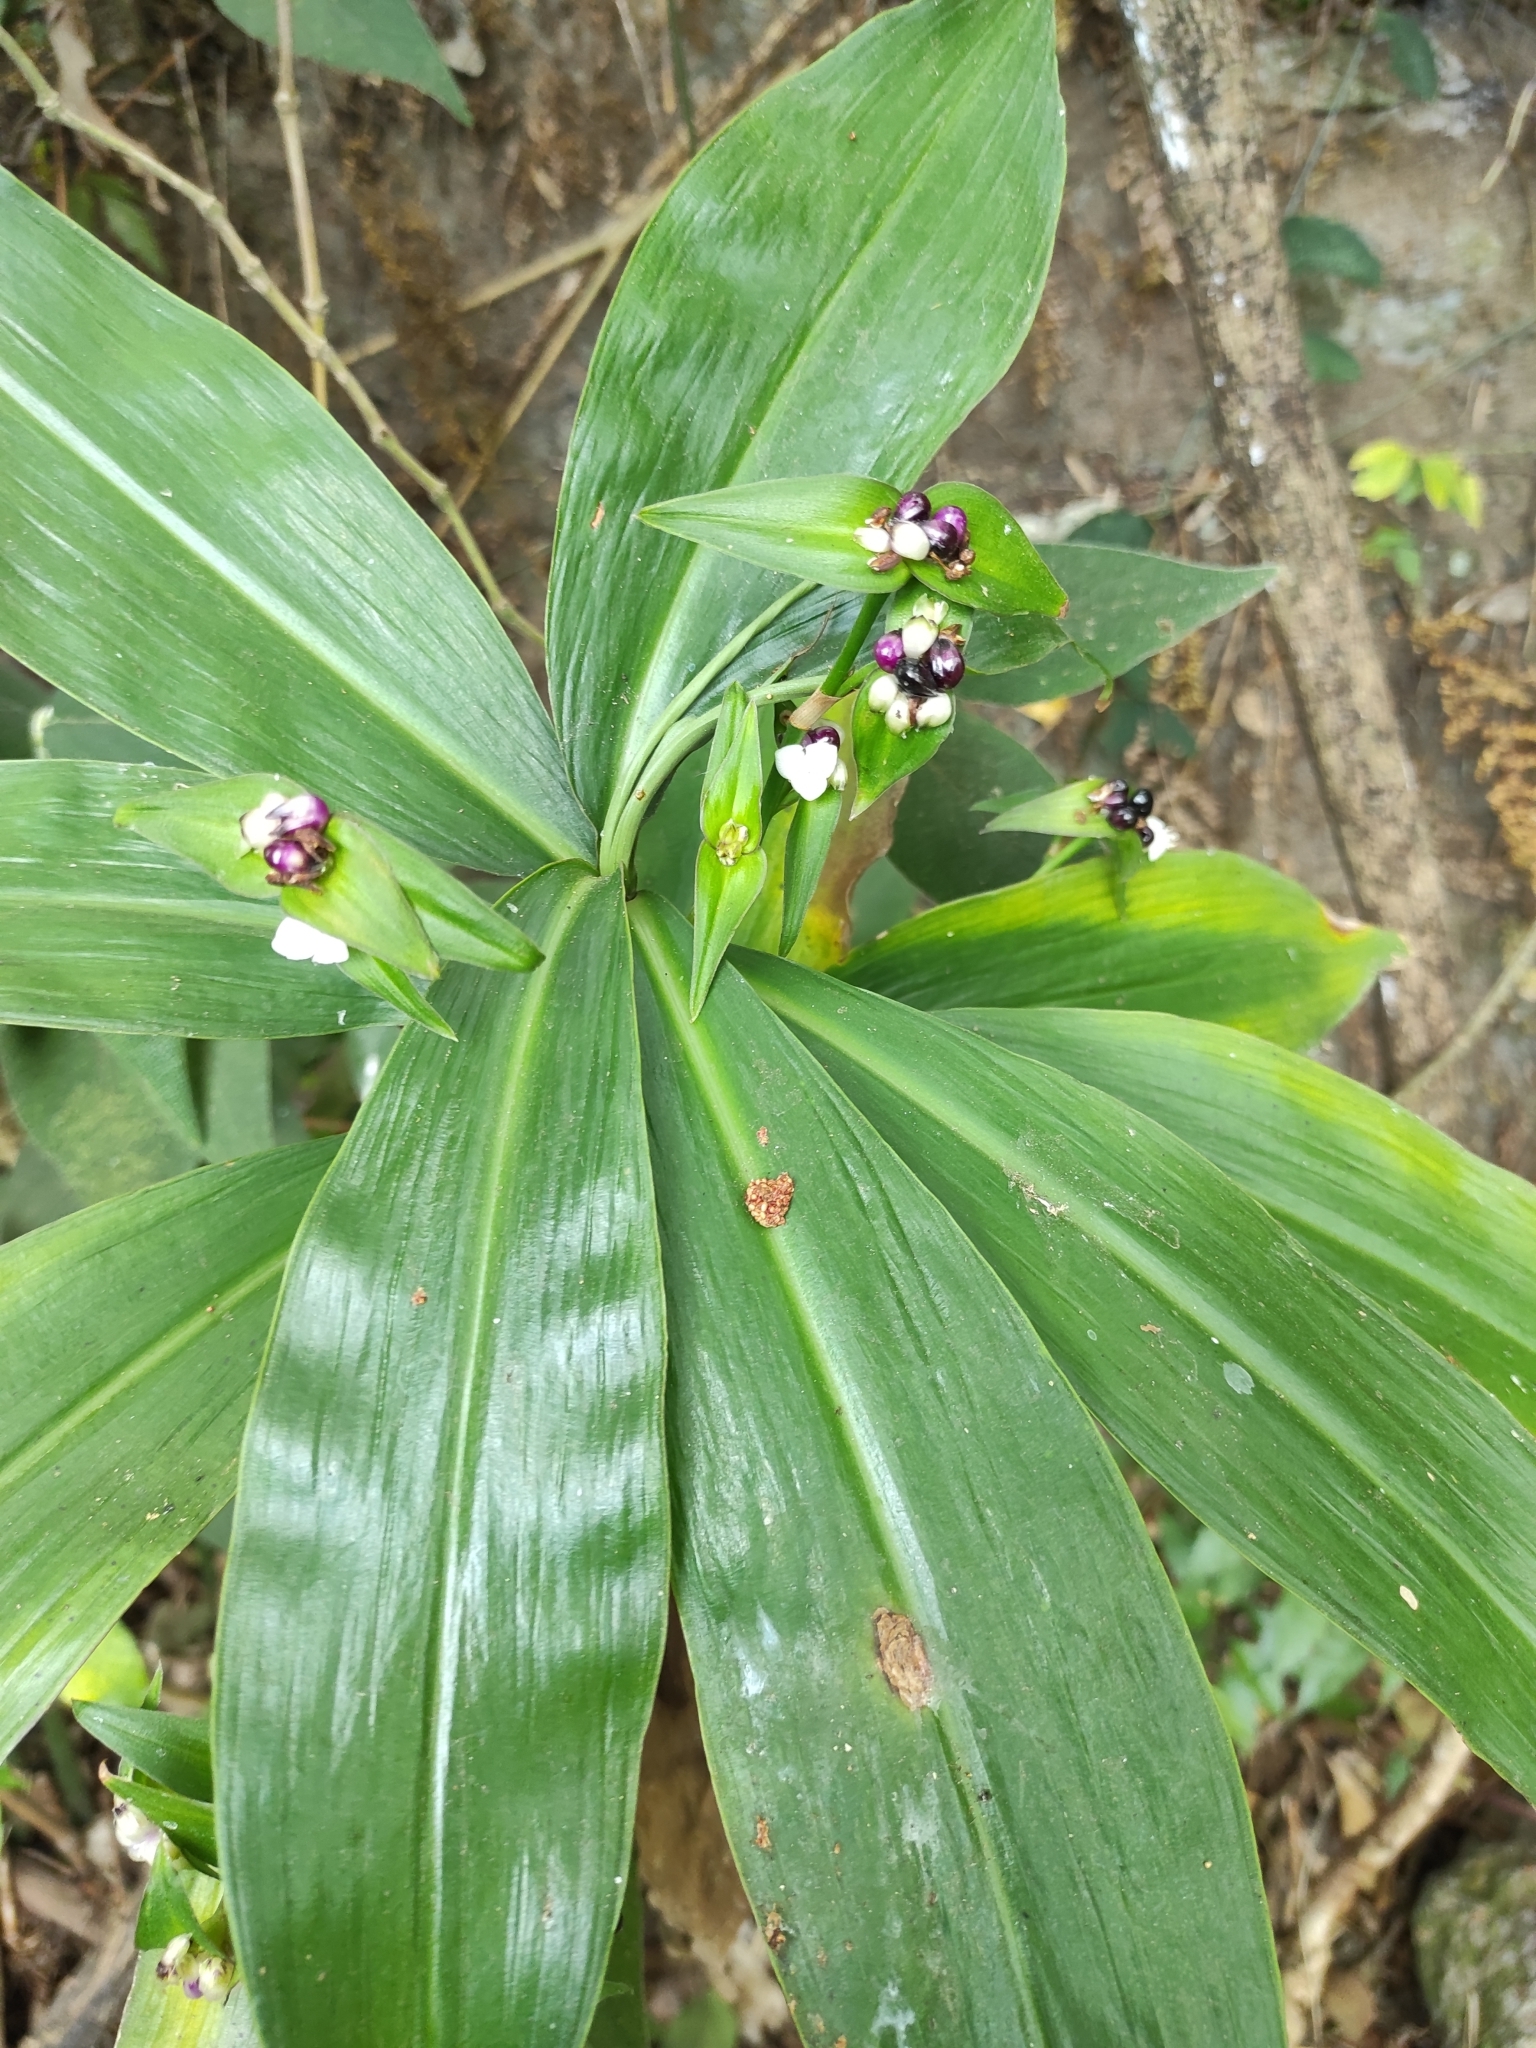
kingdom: Plantae
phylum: Tracheophyta
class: Liliopsida
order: Commelinales
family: Commelinaceae
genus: Tradescantia
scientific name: Tradescantia zanonia
